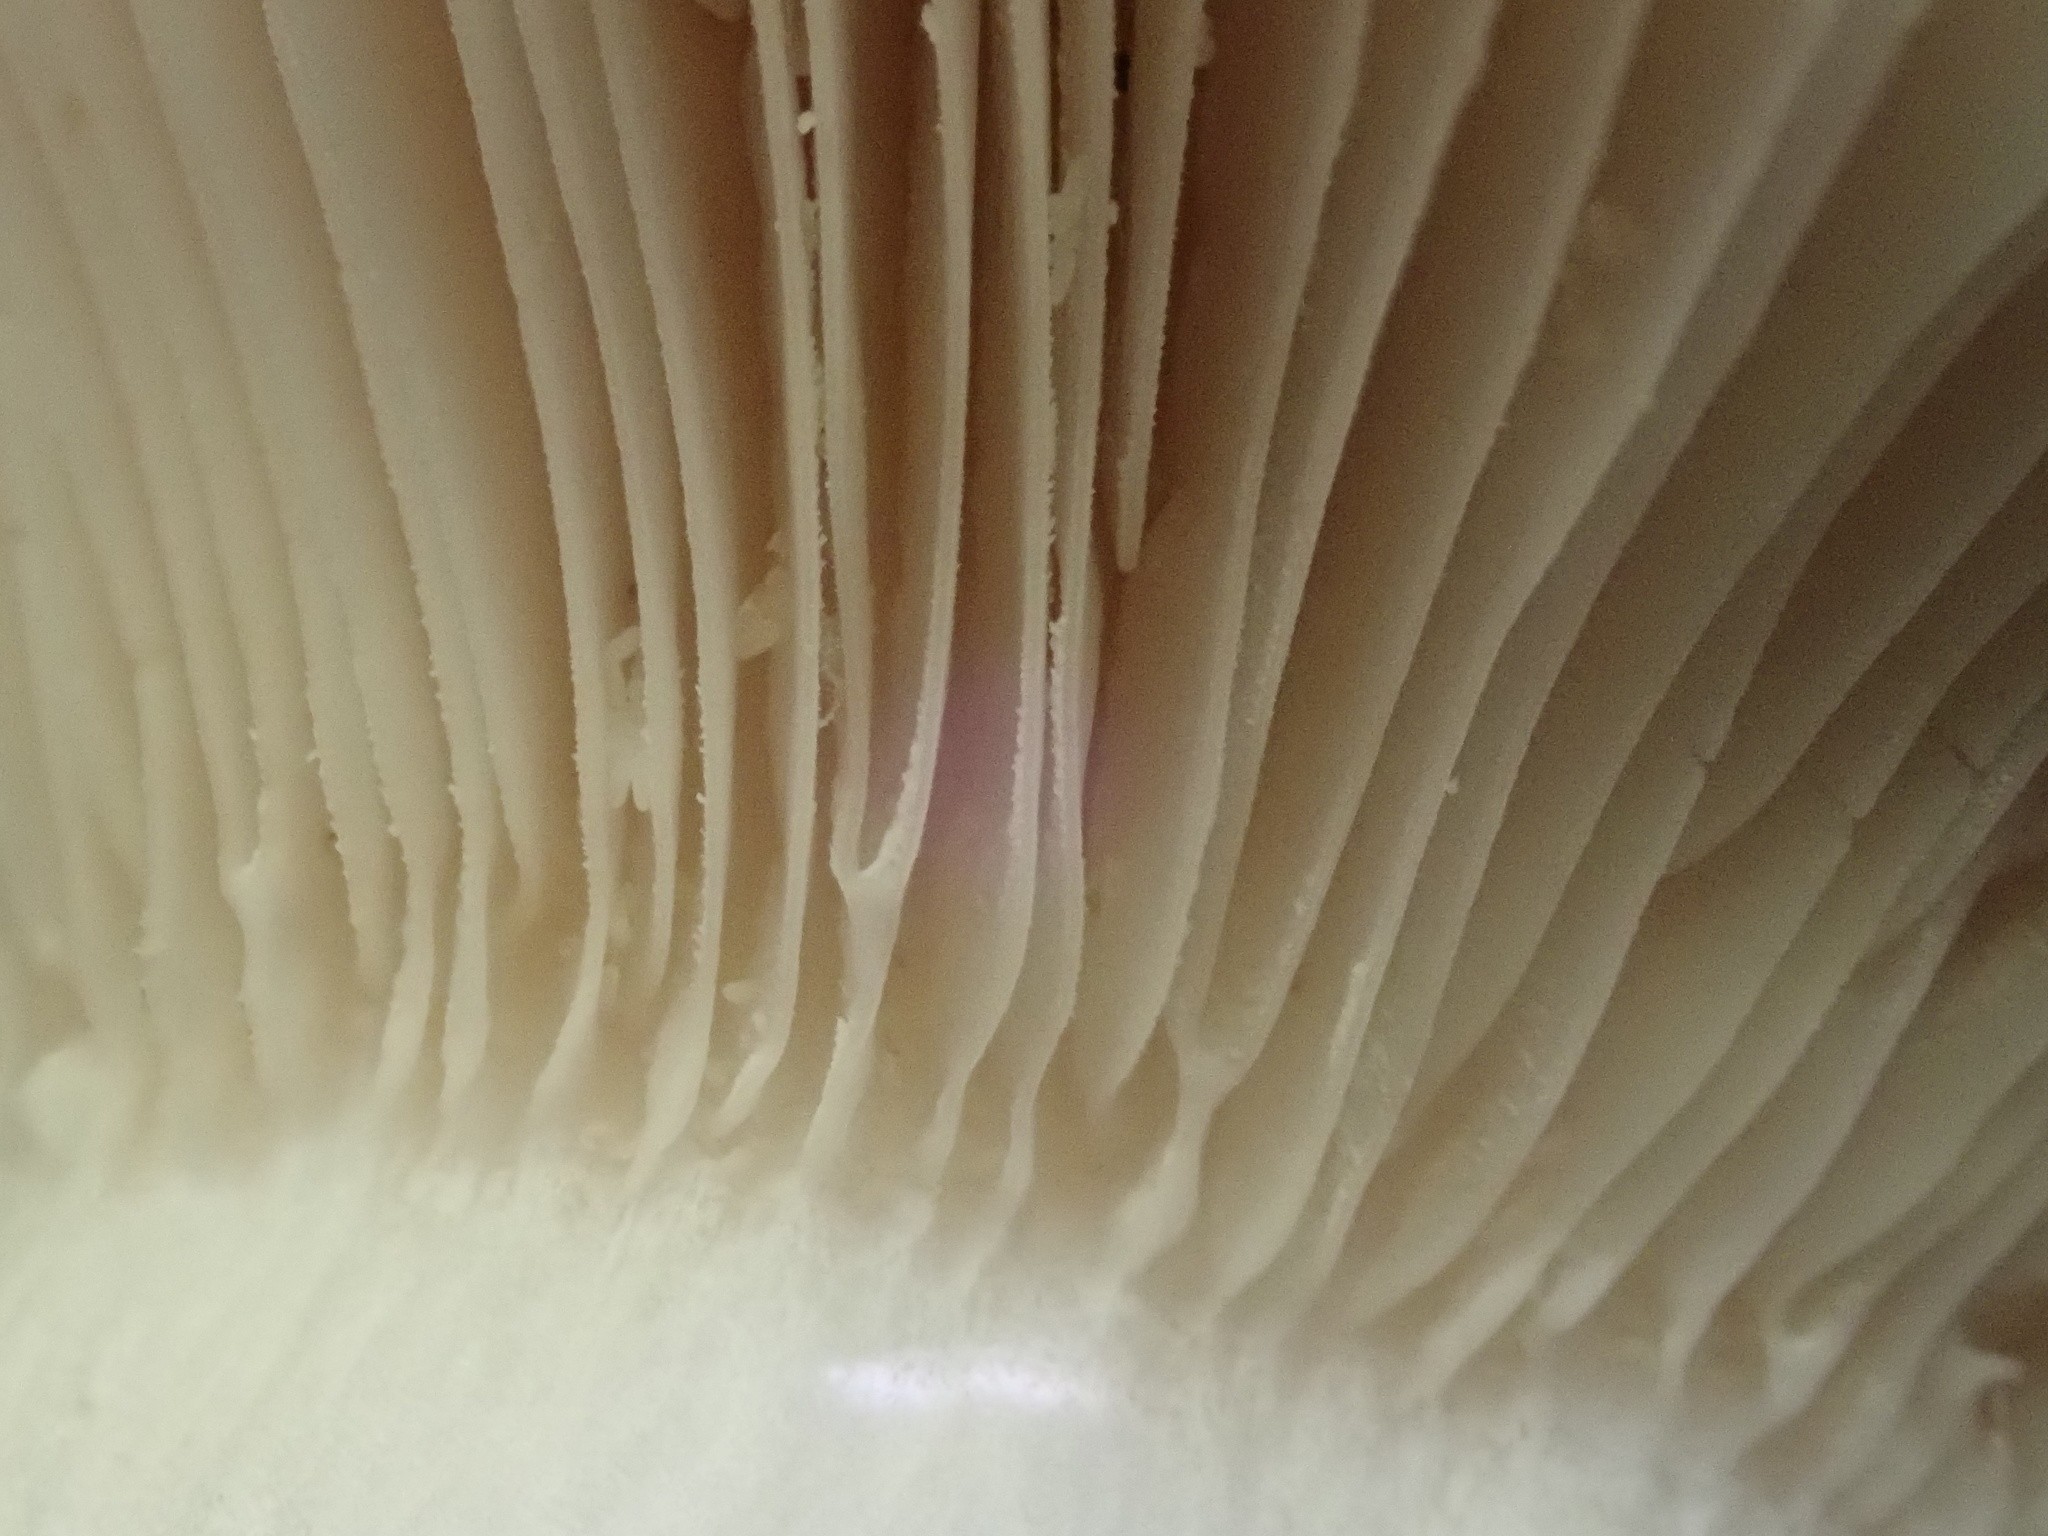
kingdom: Fungi
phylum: Basidiomycota
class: Agaricomycetes
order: Russulales
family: Russulaceae
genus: Russula
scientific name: Russula iterika
